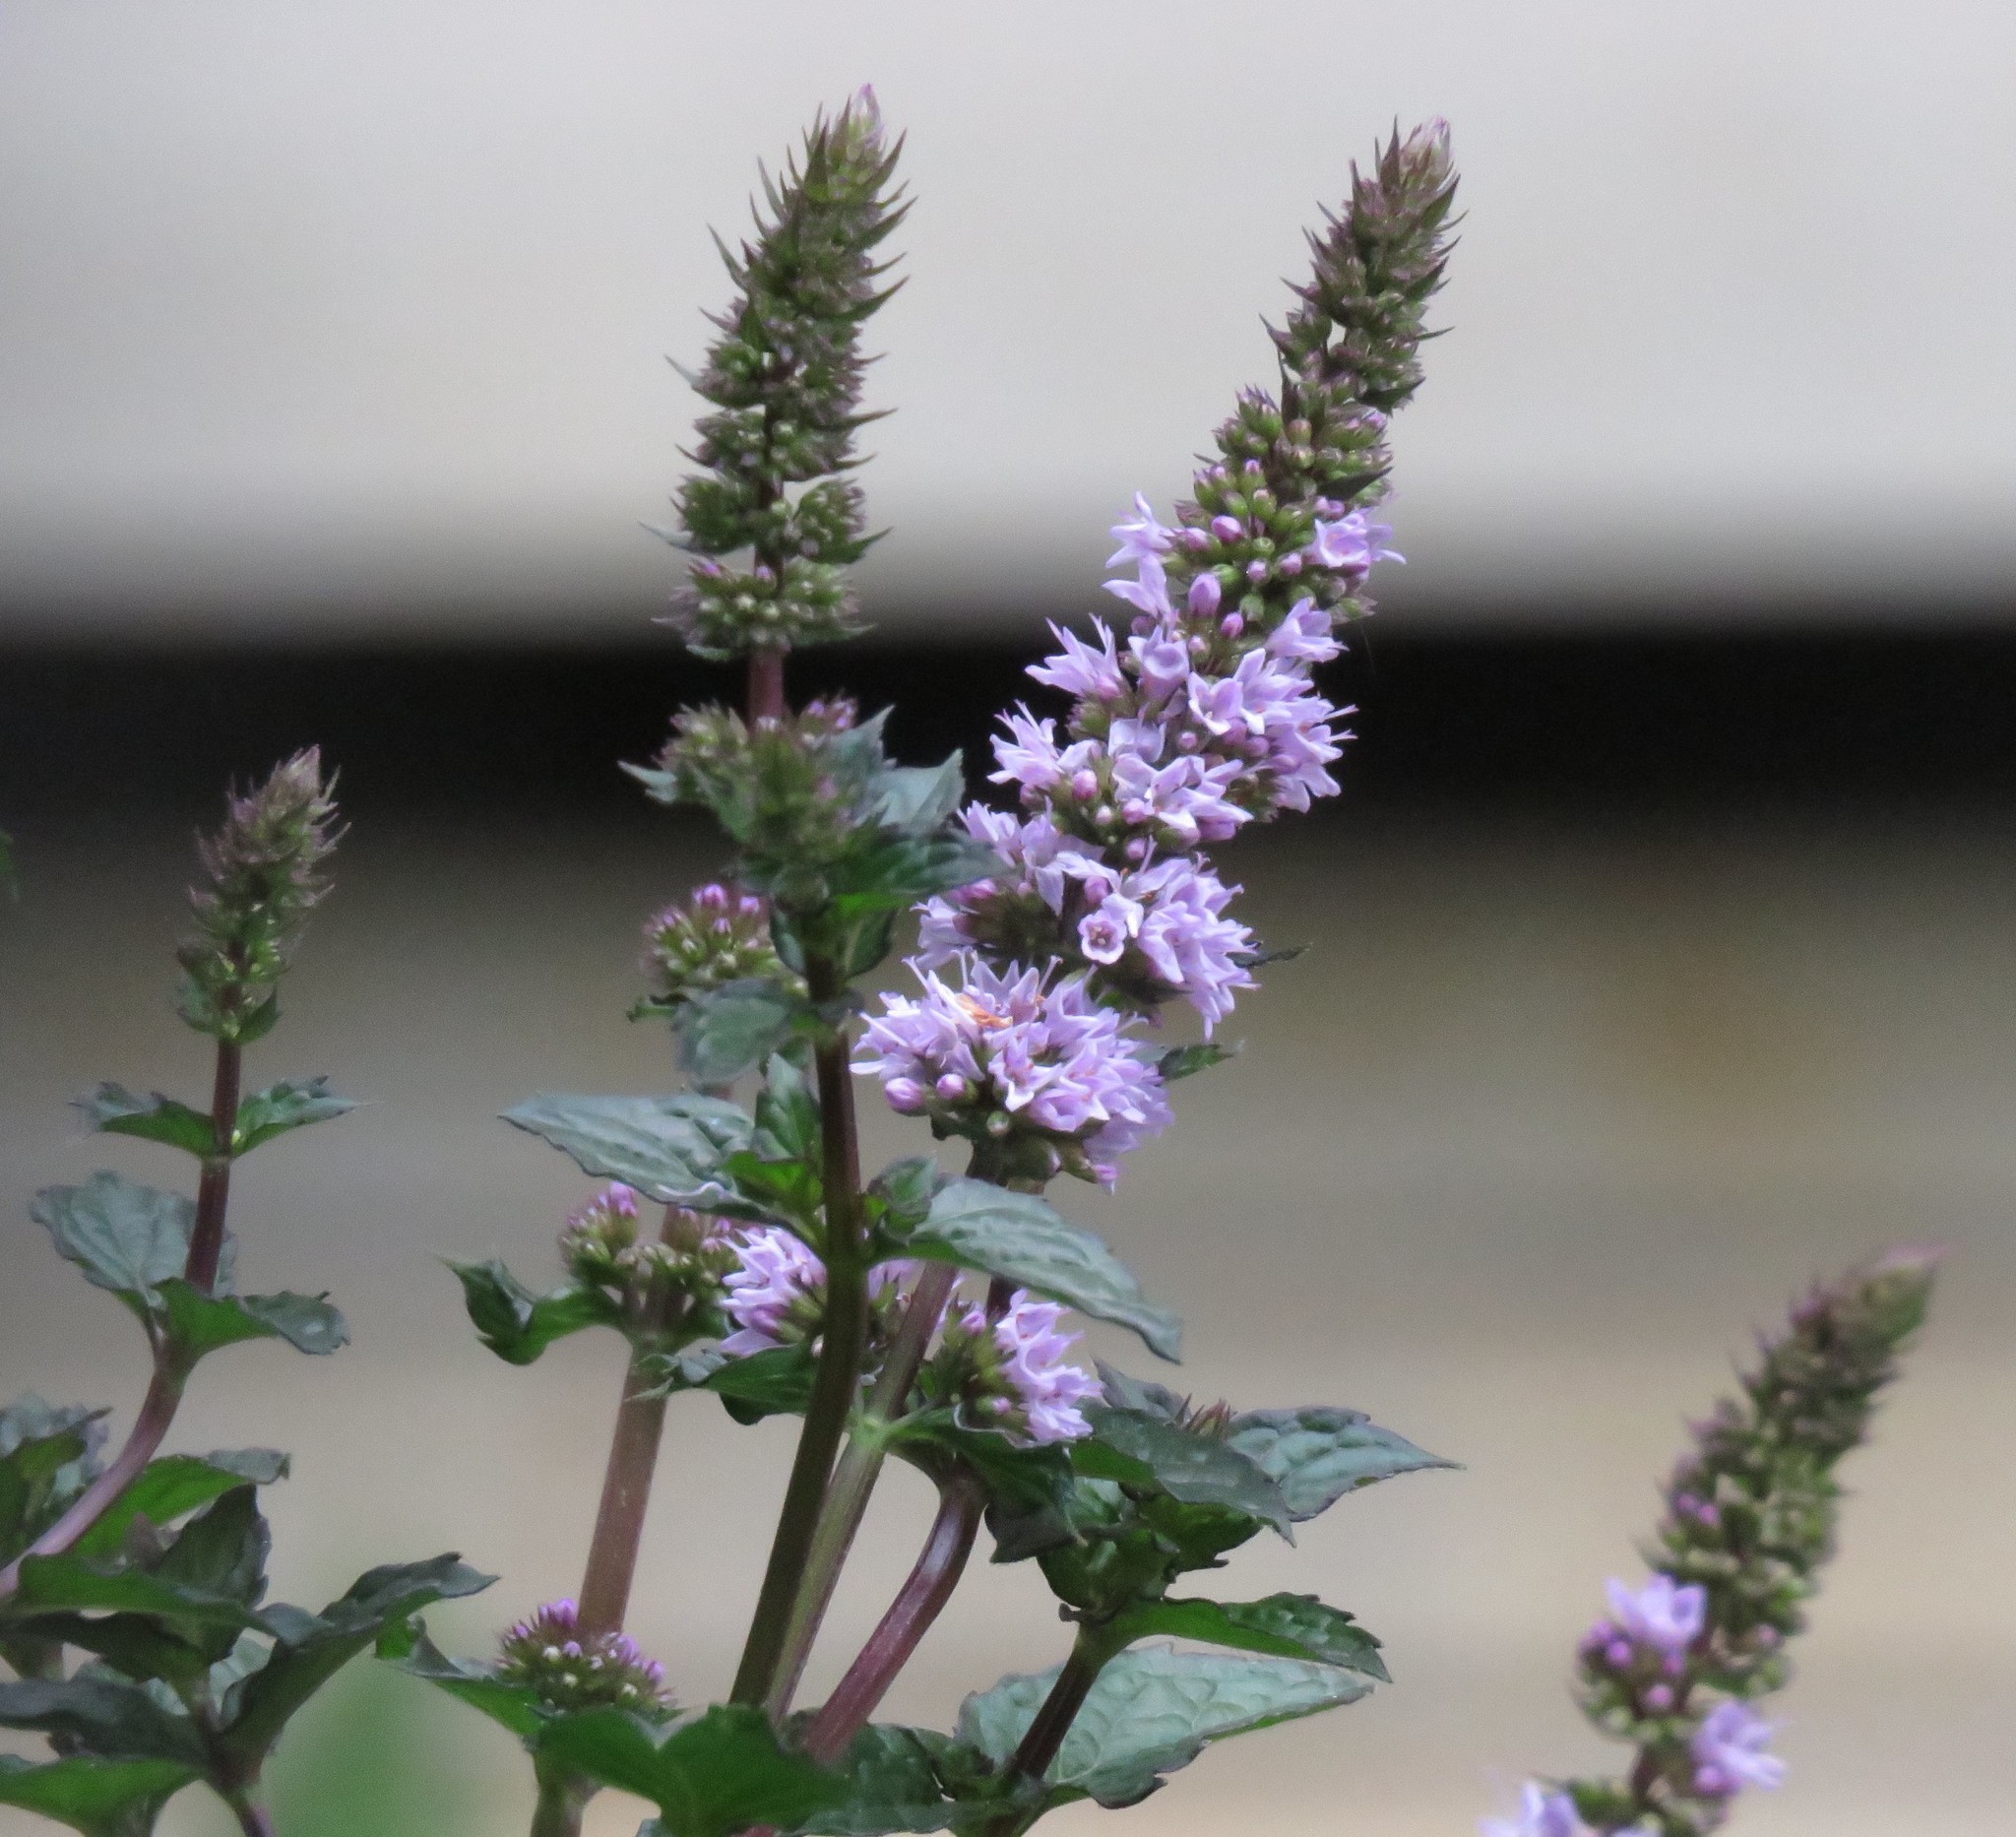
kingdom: Plantae
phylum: Tracheophyta
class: Magnoliopsida
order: Lamiales
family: Lamiaceae
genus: Mentha
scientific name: Mentha spicata
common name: Spearmint
